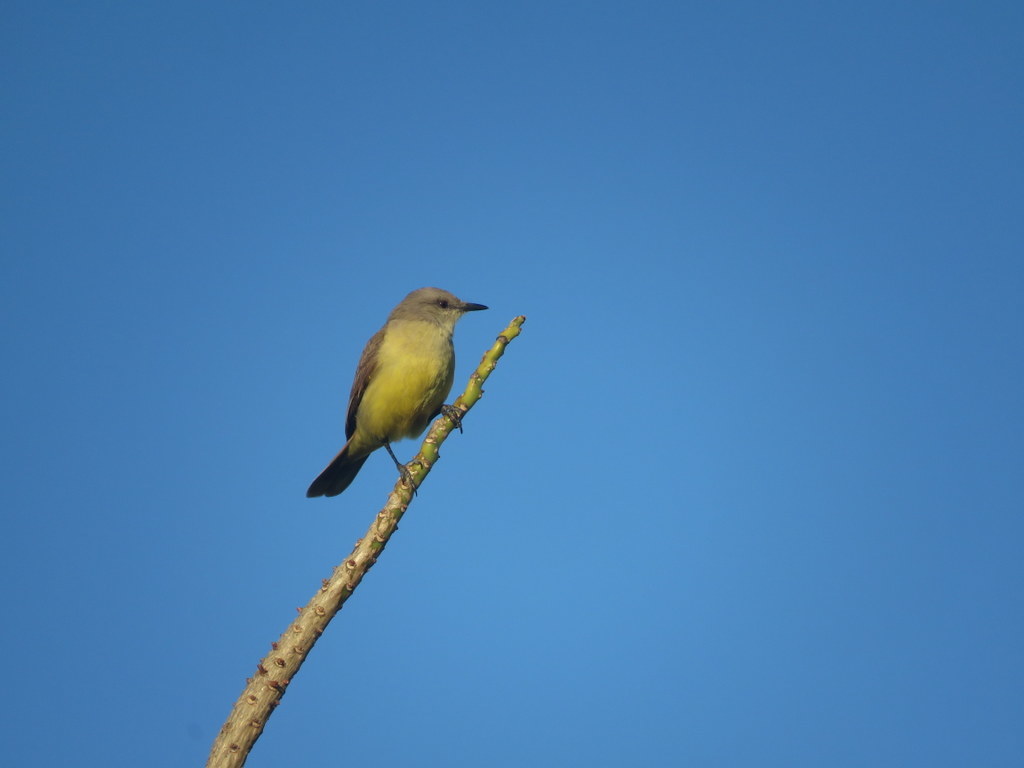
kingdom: Animalia
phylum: Chordata
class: Aves
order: Passeriformes
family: Tyrannidae
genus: Machetornis
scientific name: Machetornis rixosa
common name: Cattle tyrant
